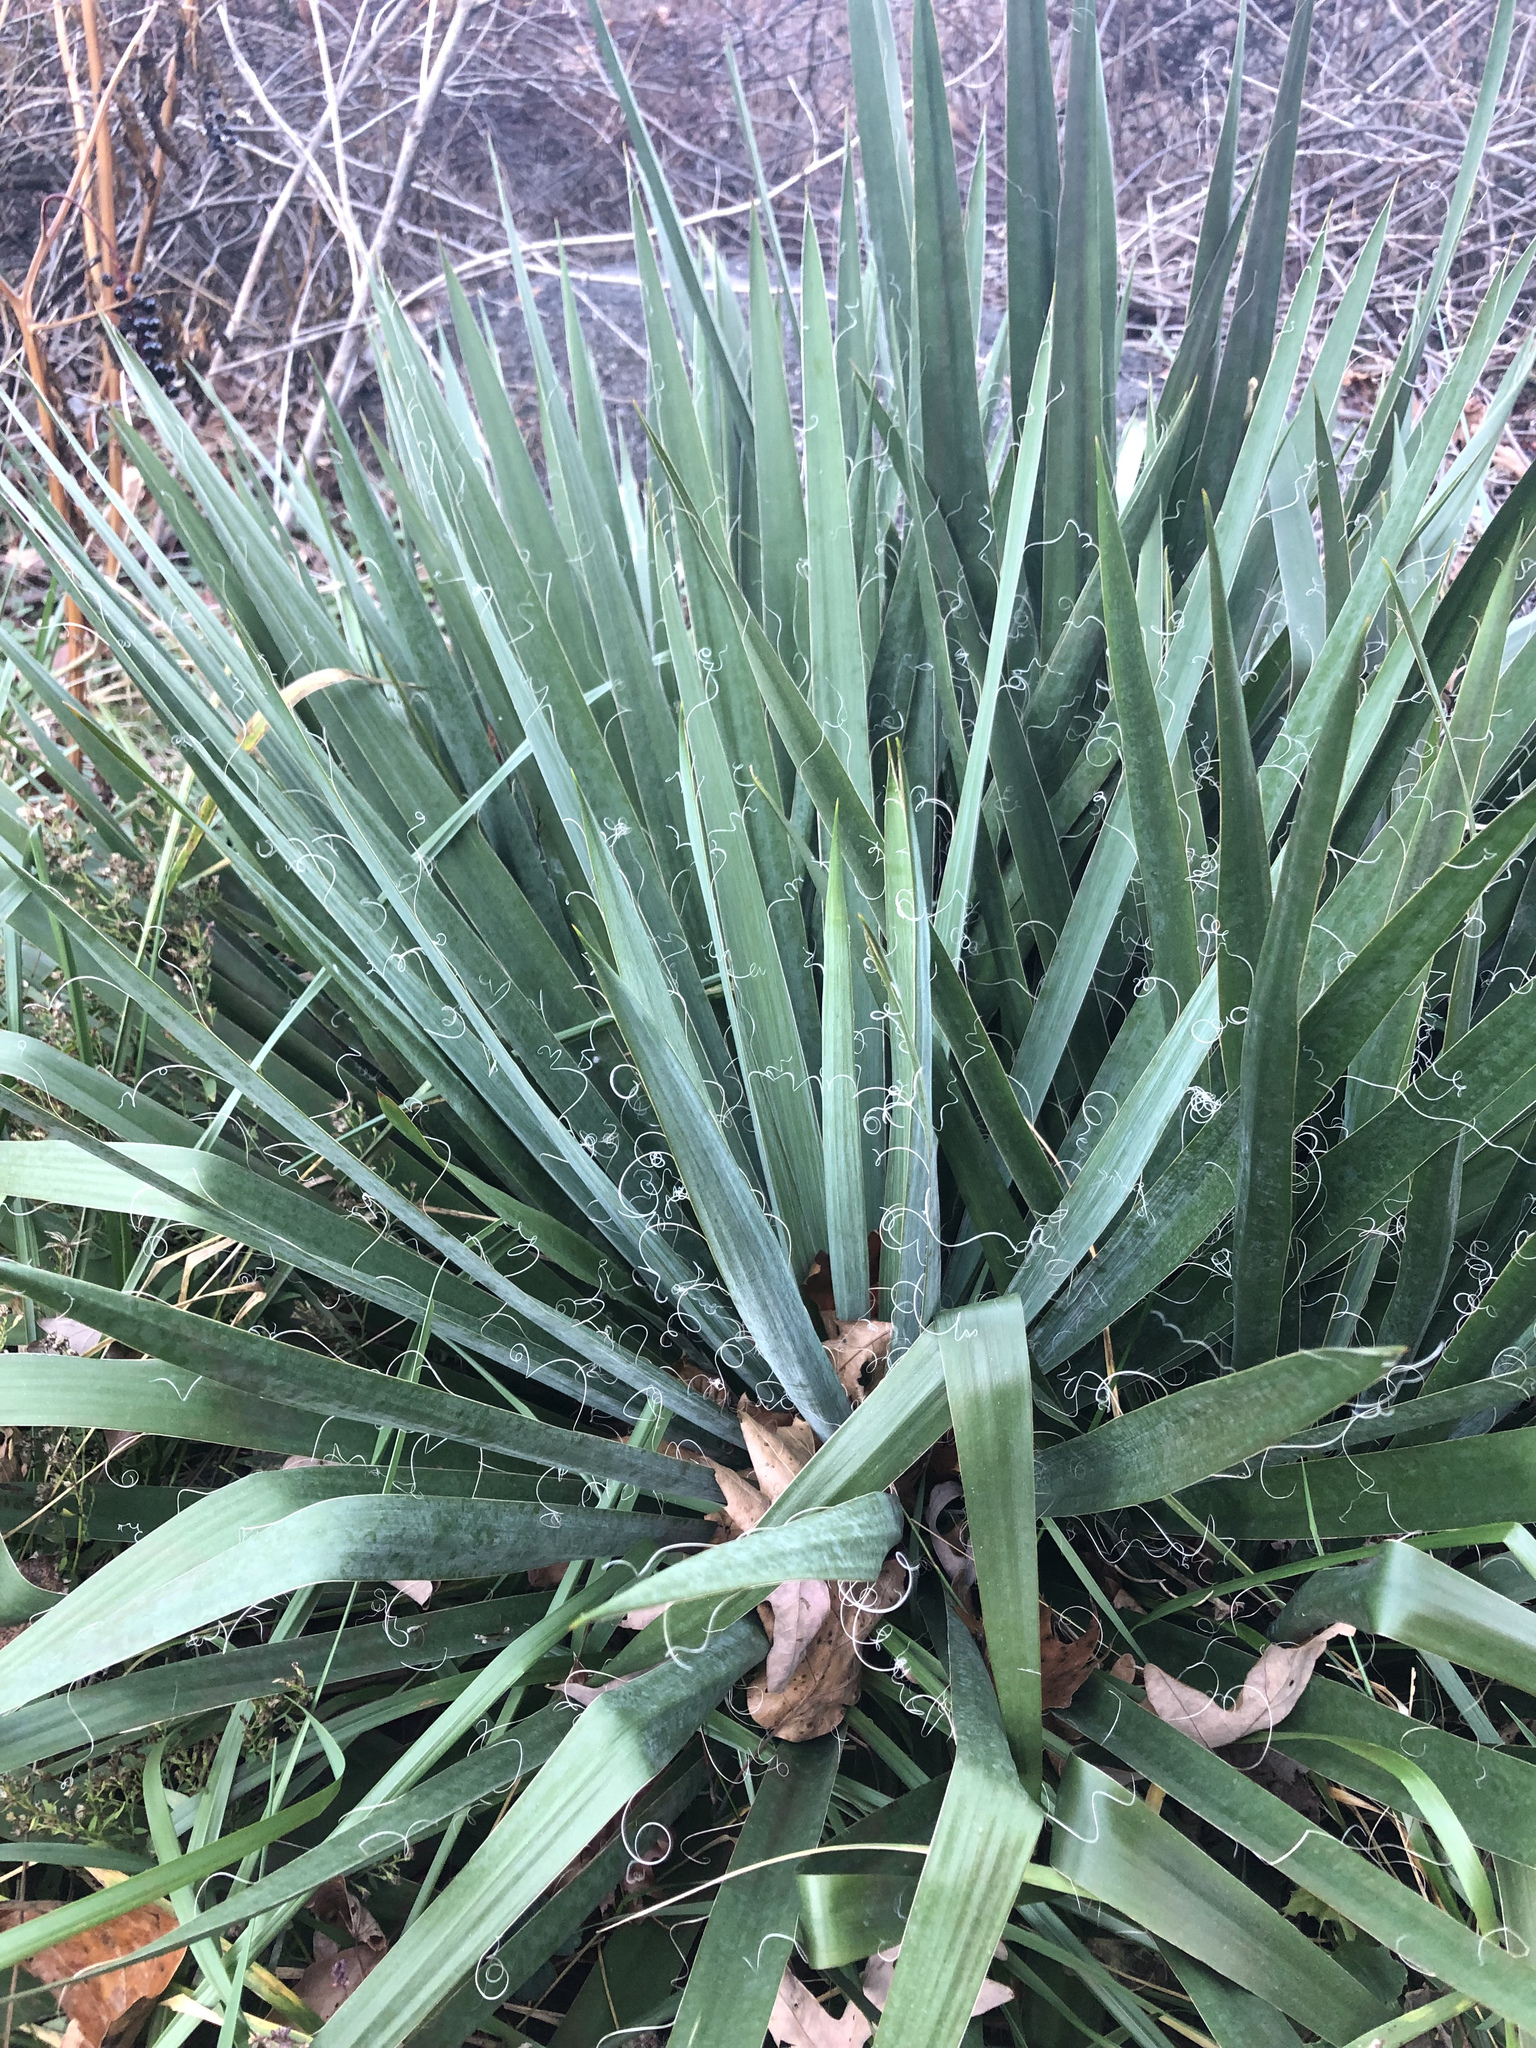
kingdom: Plantae
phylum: Tracheophyta
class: Liliopsida
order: Asparagales
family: Asparagaceae
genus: Yucca
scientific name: Yucca filamentosa
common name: Adam's-needle
